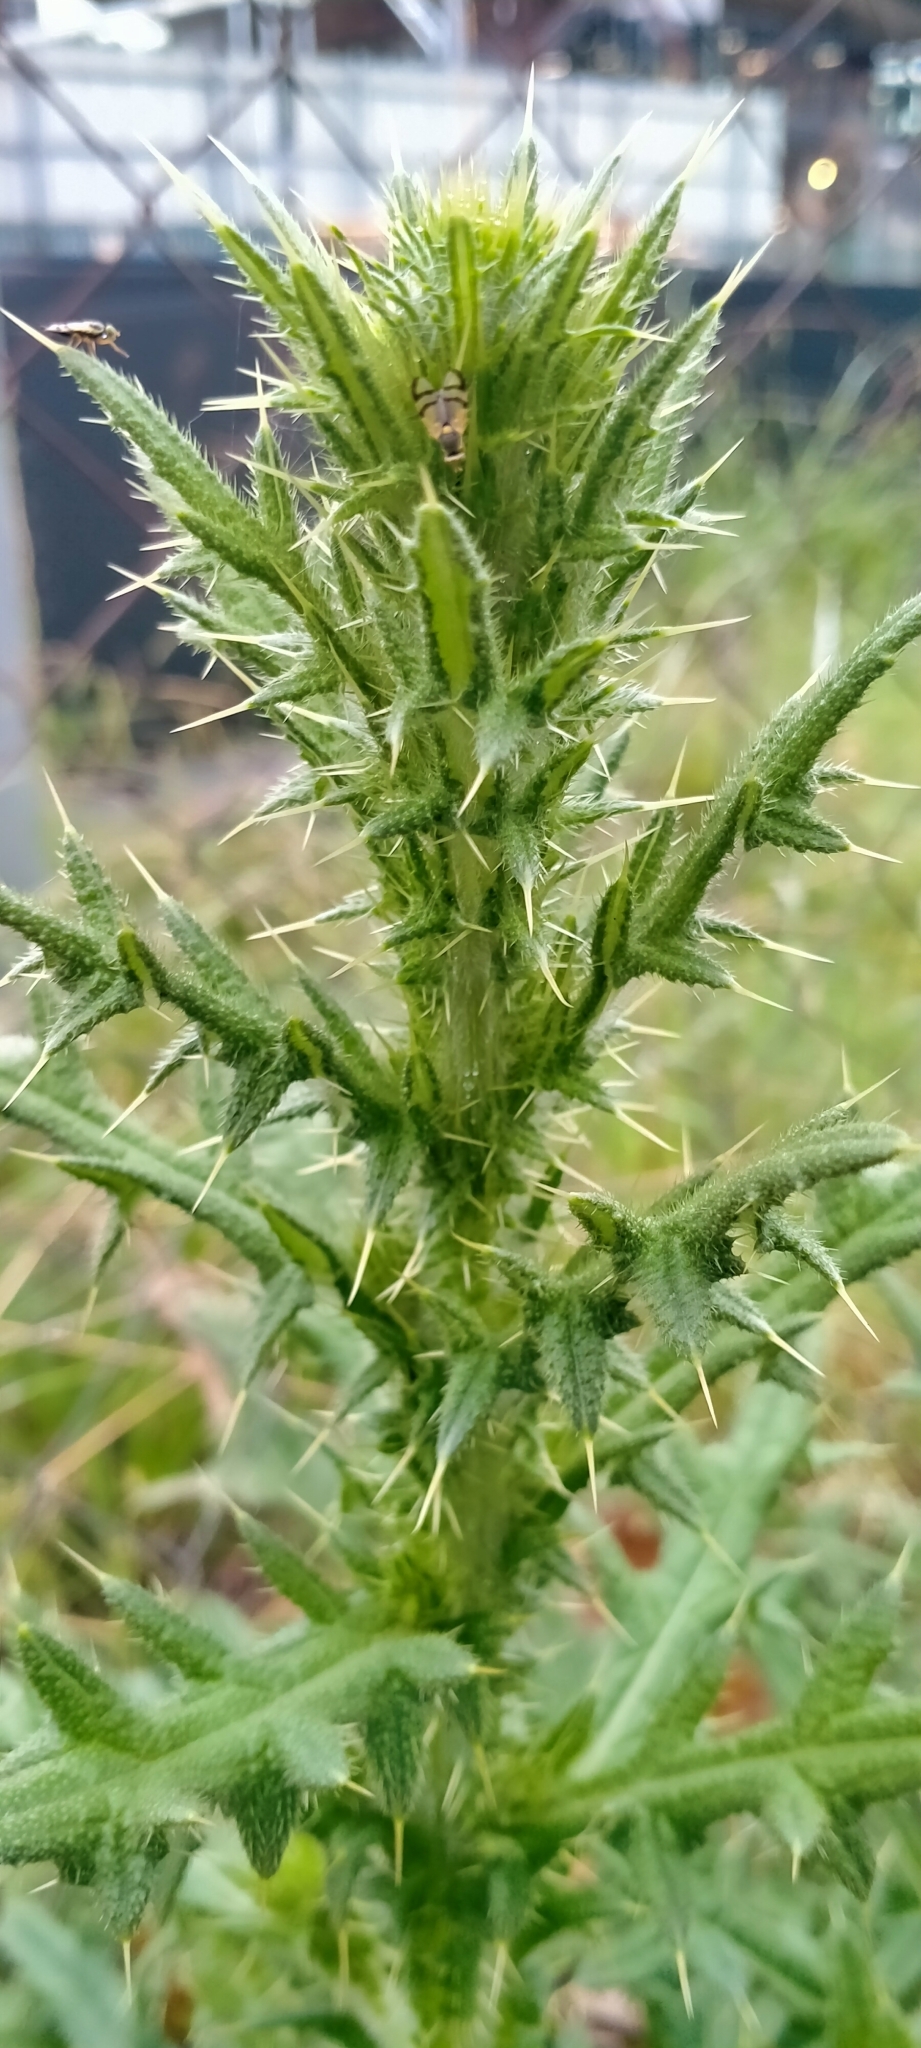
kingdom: Plantae
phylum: Tracheophyta
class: Magnoliopsida
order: Asterales
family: Asteraceae
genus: Cirsium
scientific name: Cirsium vulgare
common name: Bull thistle
